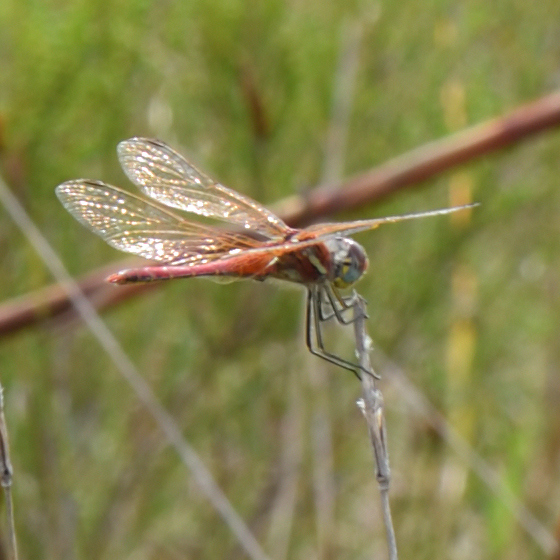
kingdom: Animalia
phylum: Arthropoda
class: Insecta
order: Odonata
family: Libellulidae
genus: Sympetrum
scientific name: Sympetrum fonscolombii
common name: Red-veined darter
